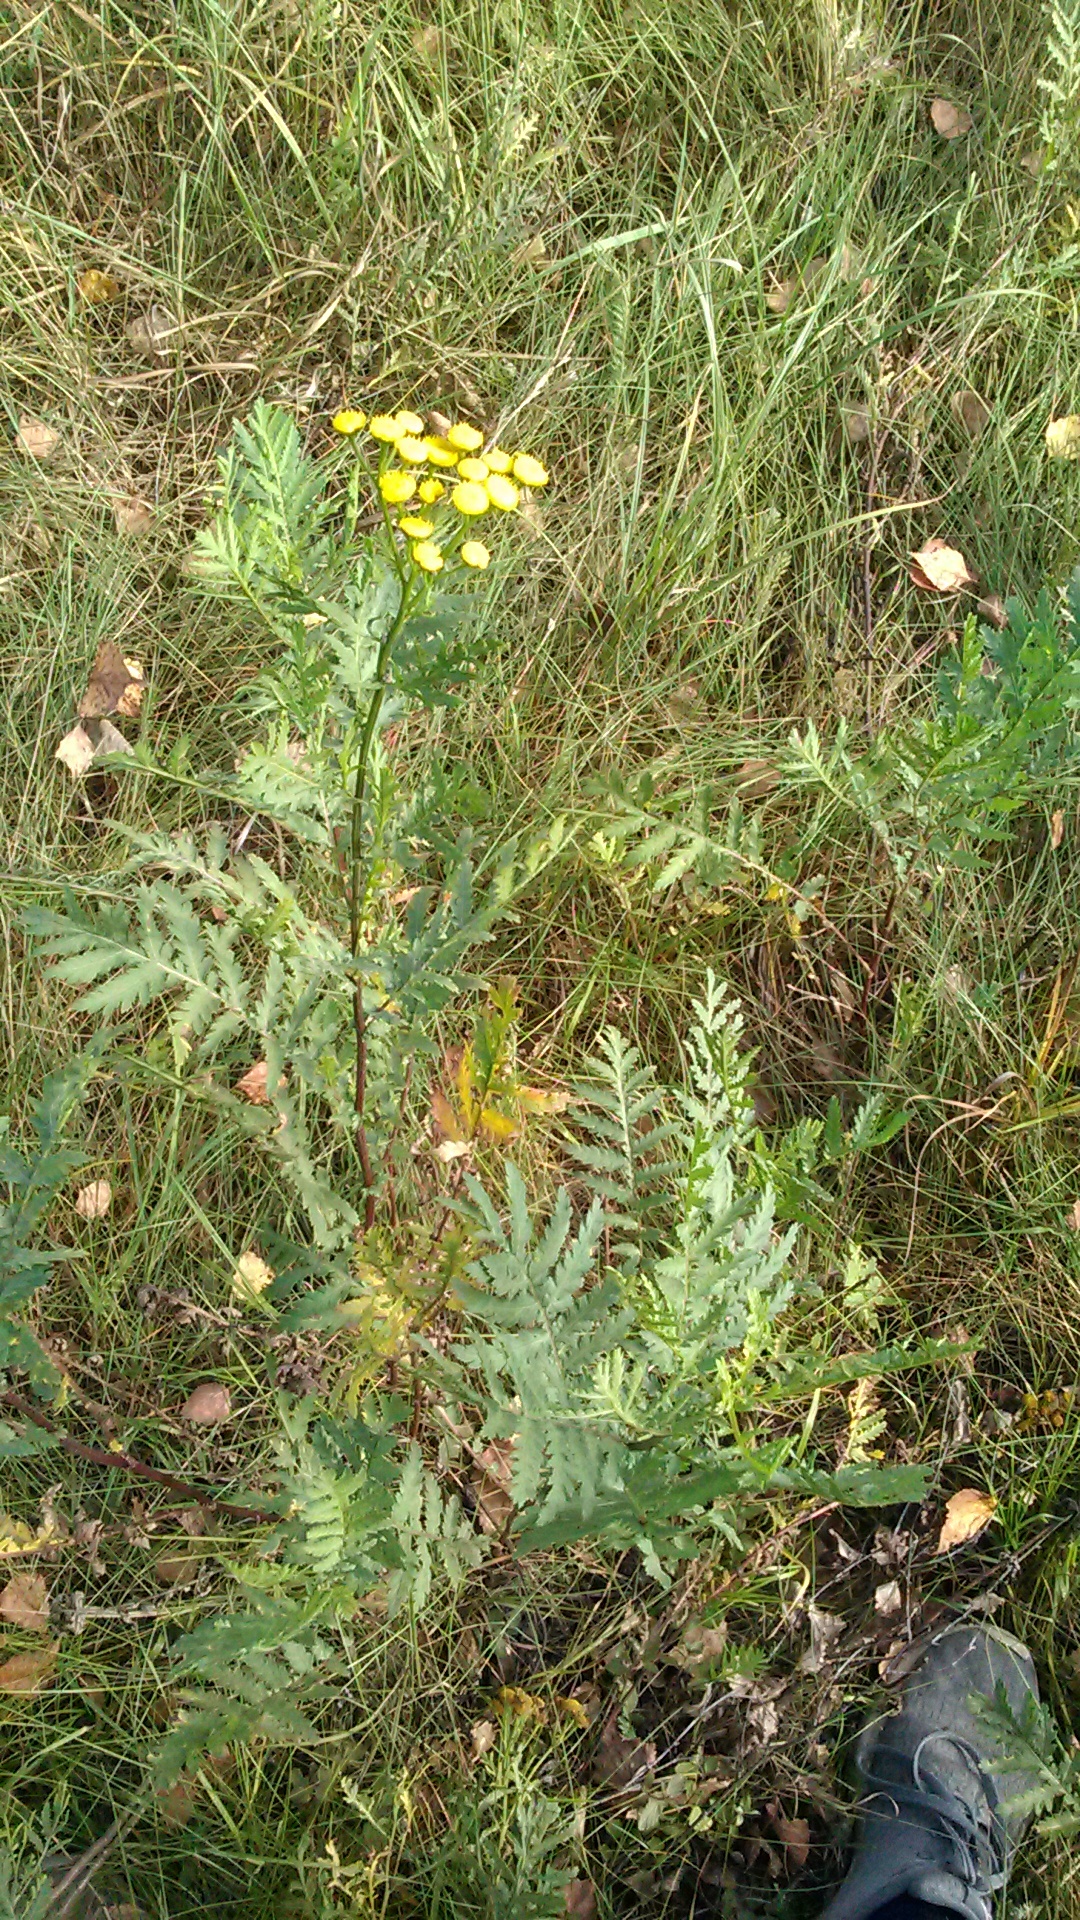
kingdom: Plantae
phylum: Tracheophyta
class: Magnoliopsida
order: Asterales
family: Asteraceae
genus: Tanacetum
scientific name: Tanacetum vulgare
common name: Common tansy
